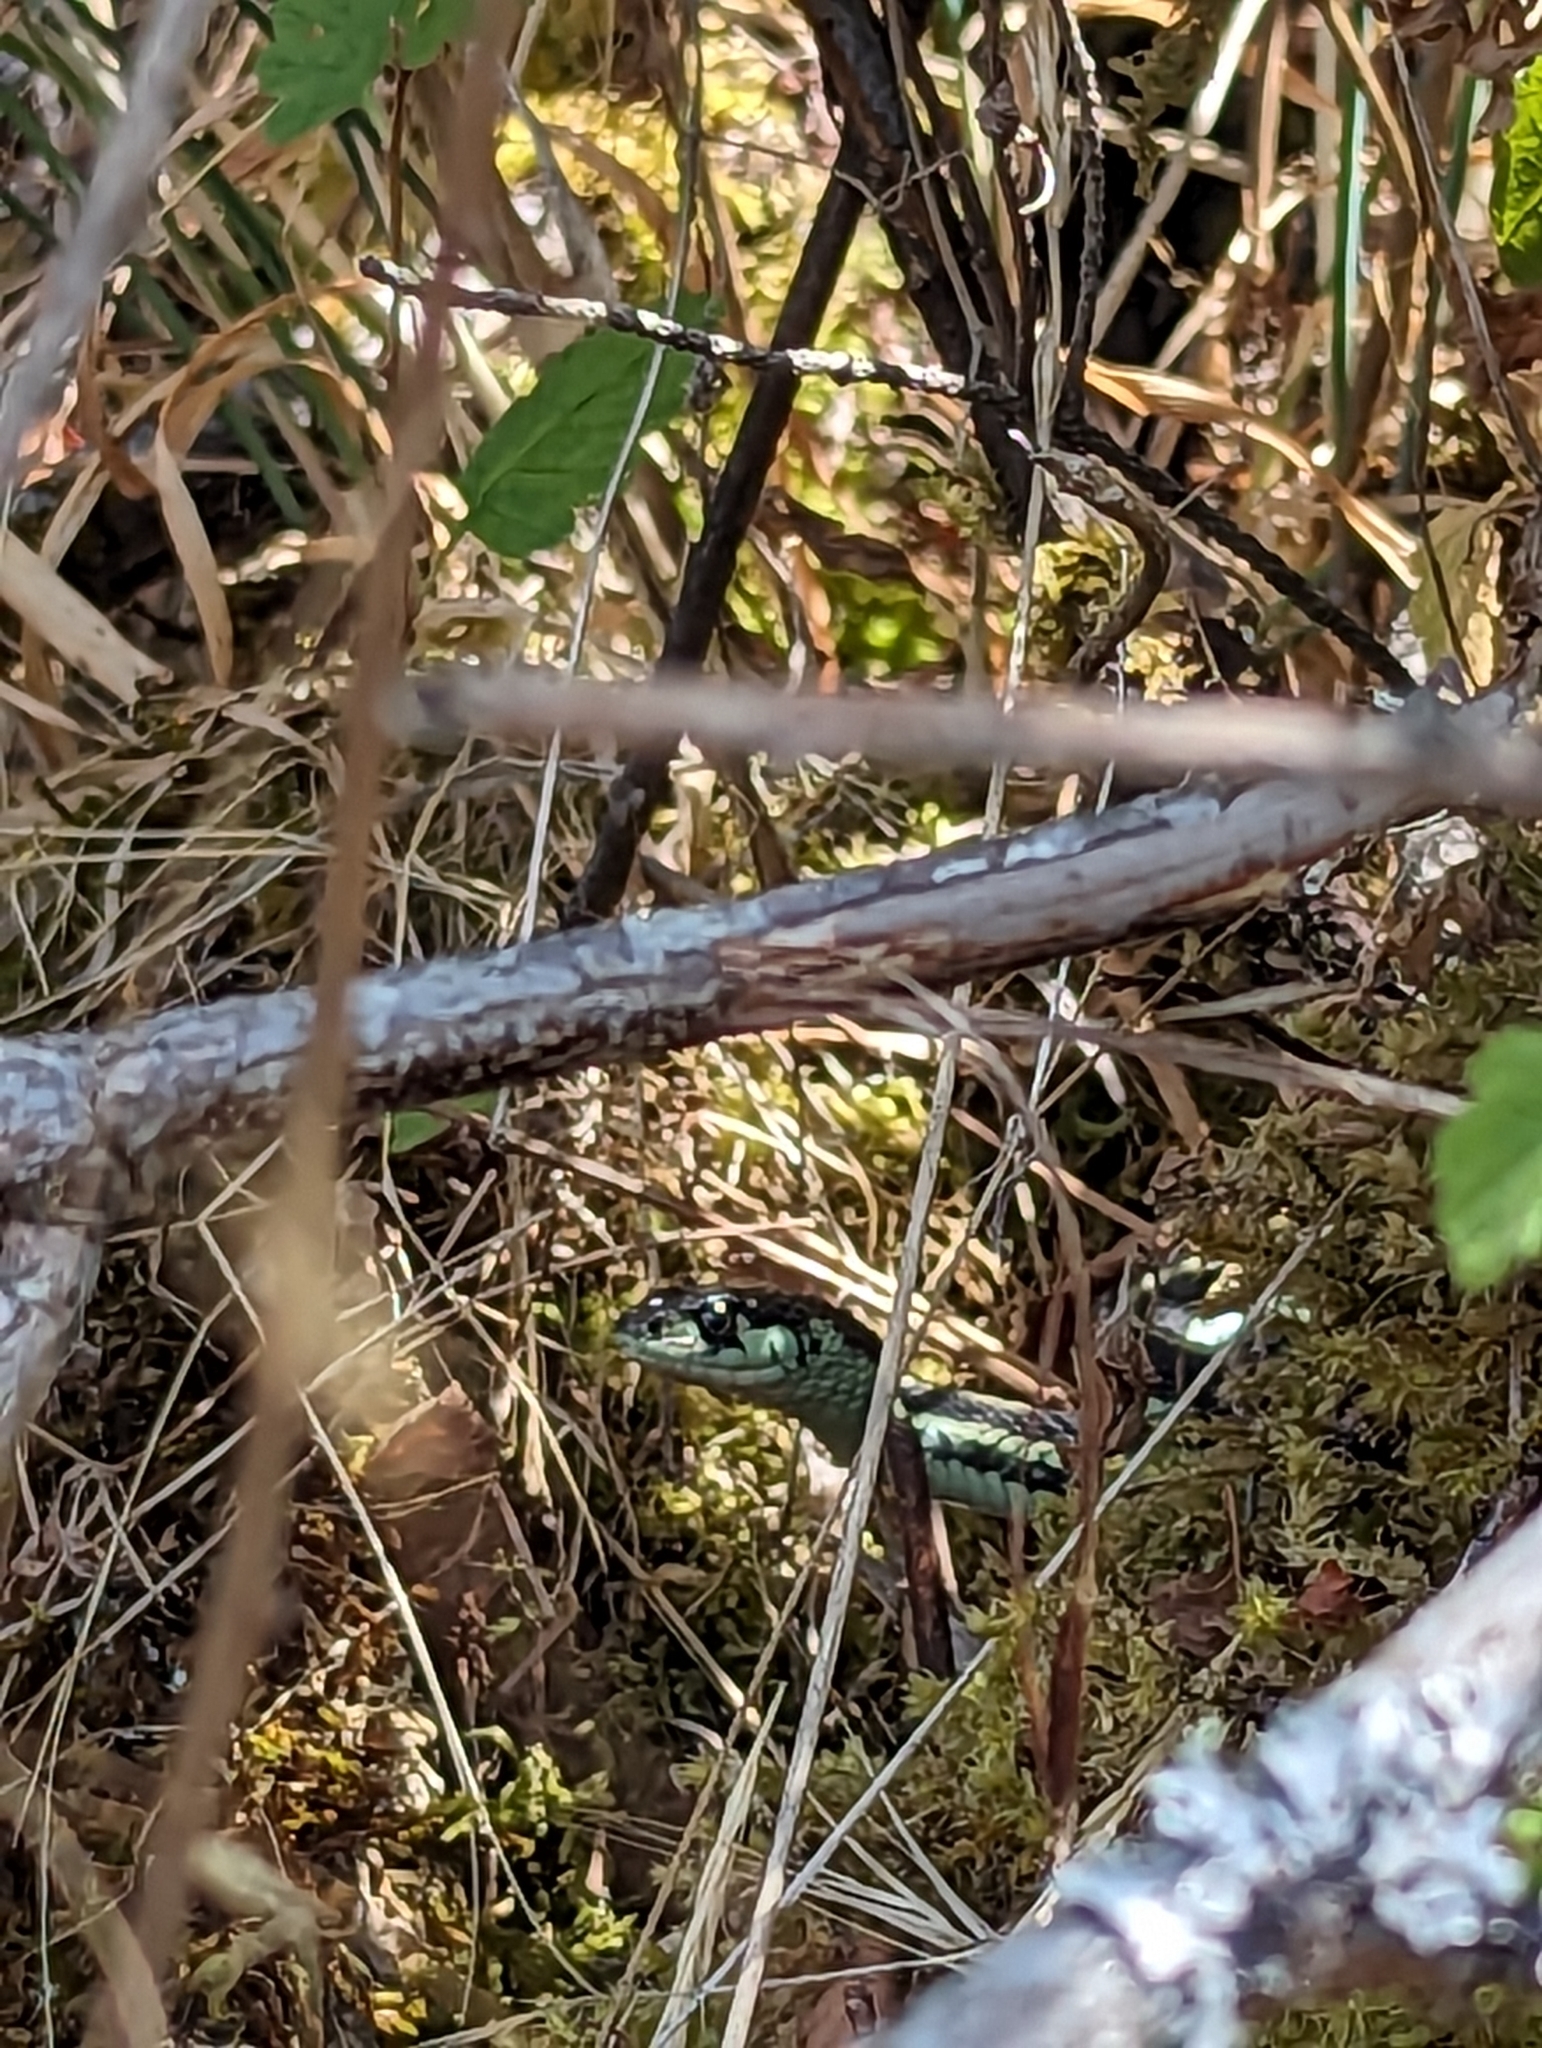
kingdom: Animalia
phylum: Chordata
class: Squamata
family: Colubridae
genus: Thamnophis
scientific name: Thamnophis sirtalis
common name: Common garter snake
